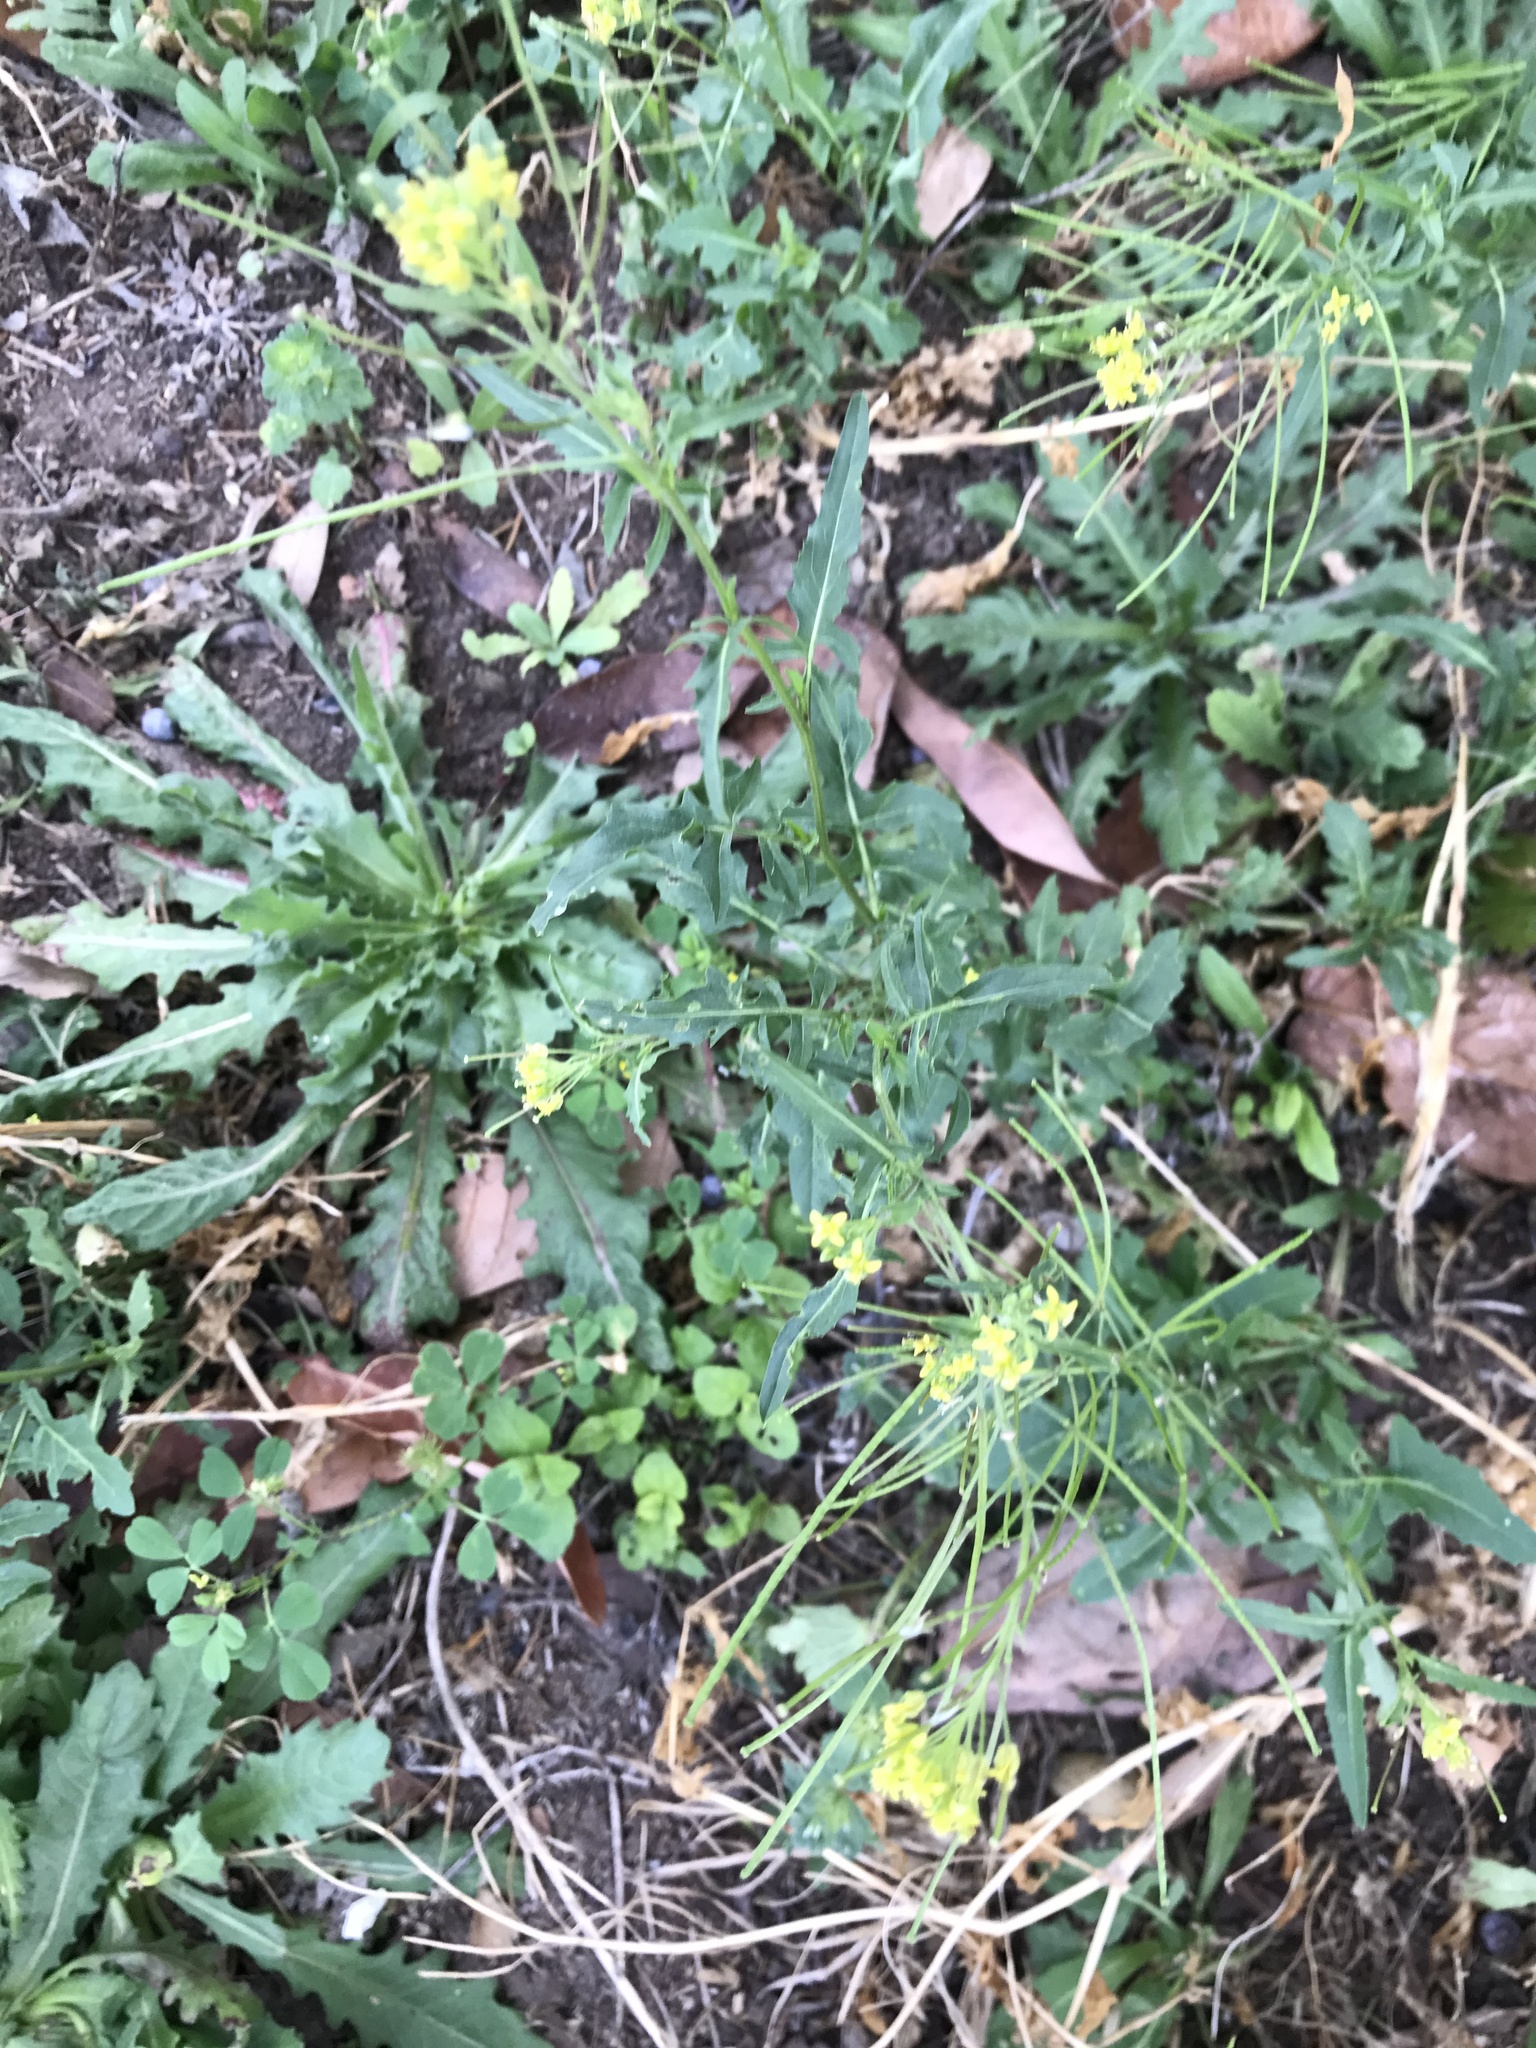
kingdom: Plantae
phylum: Tracheophyta
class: Magnoliopsida
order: Brassicales
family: Brassicaceae
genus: Sisymbrium
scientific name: Sisymbrium irio
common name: London rocket
